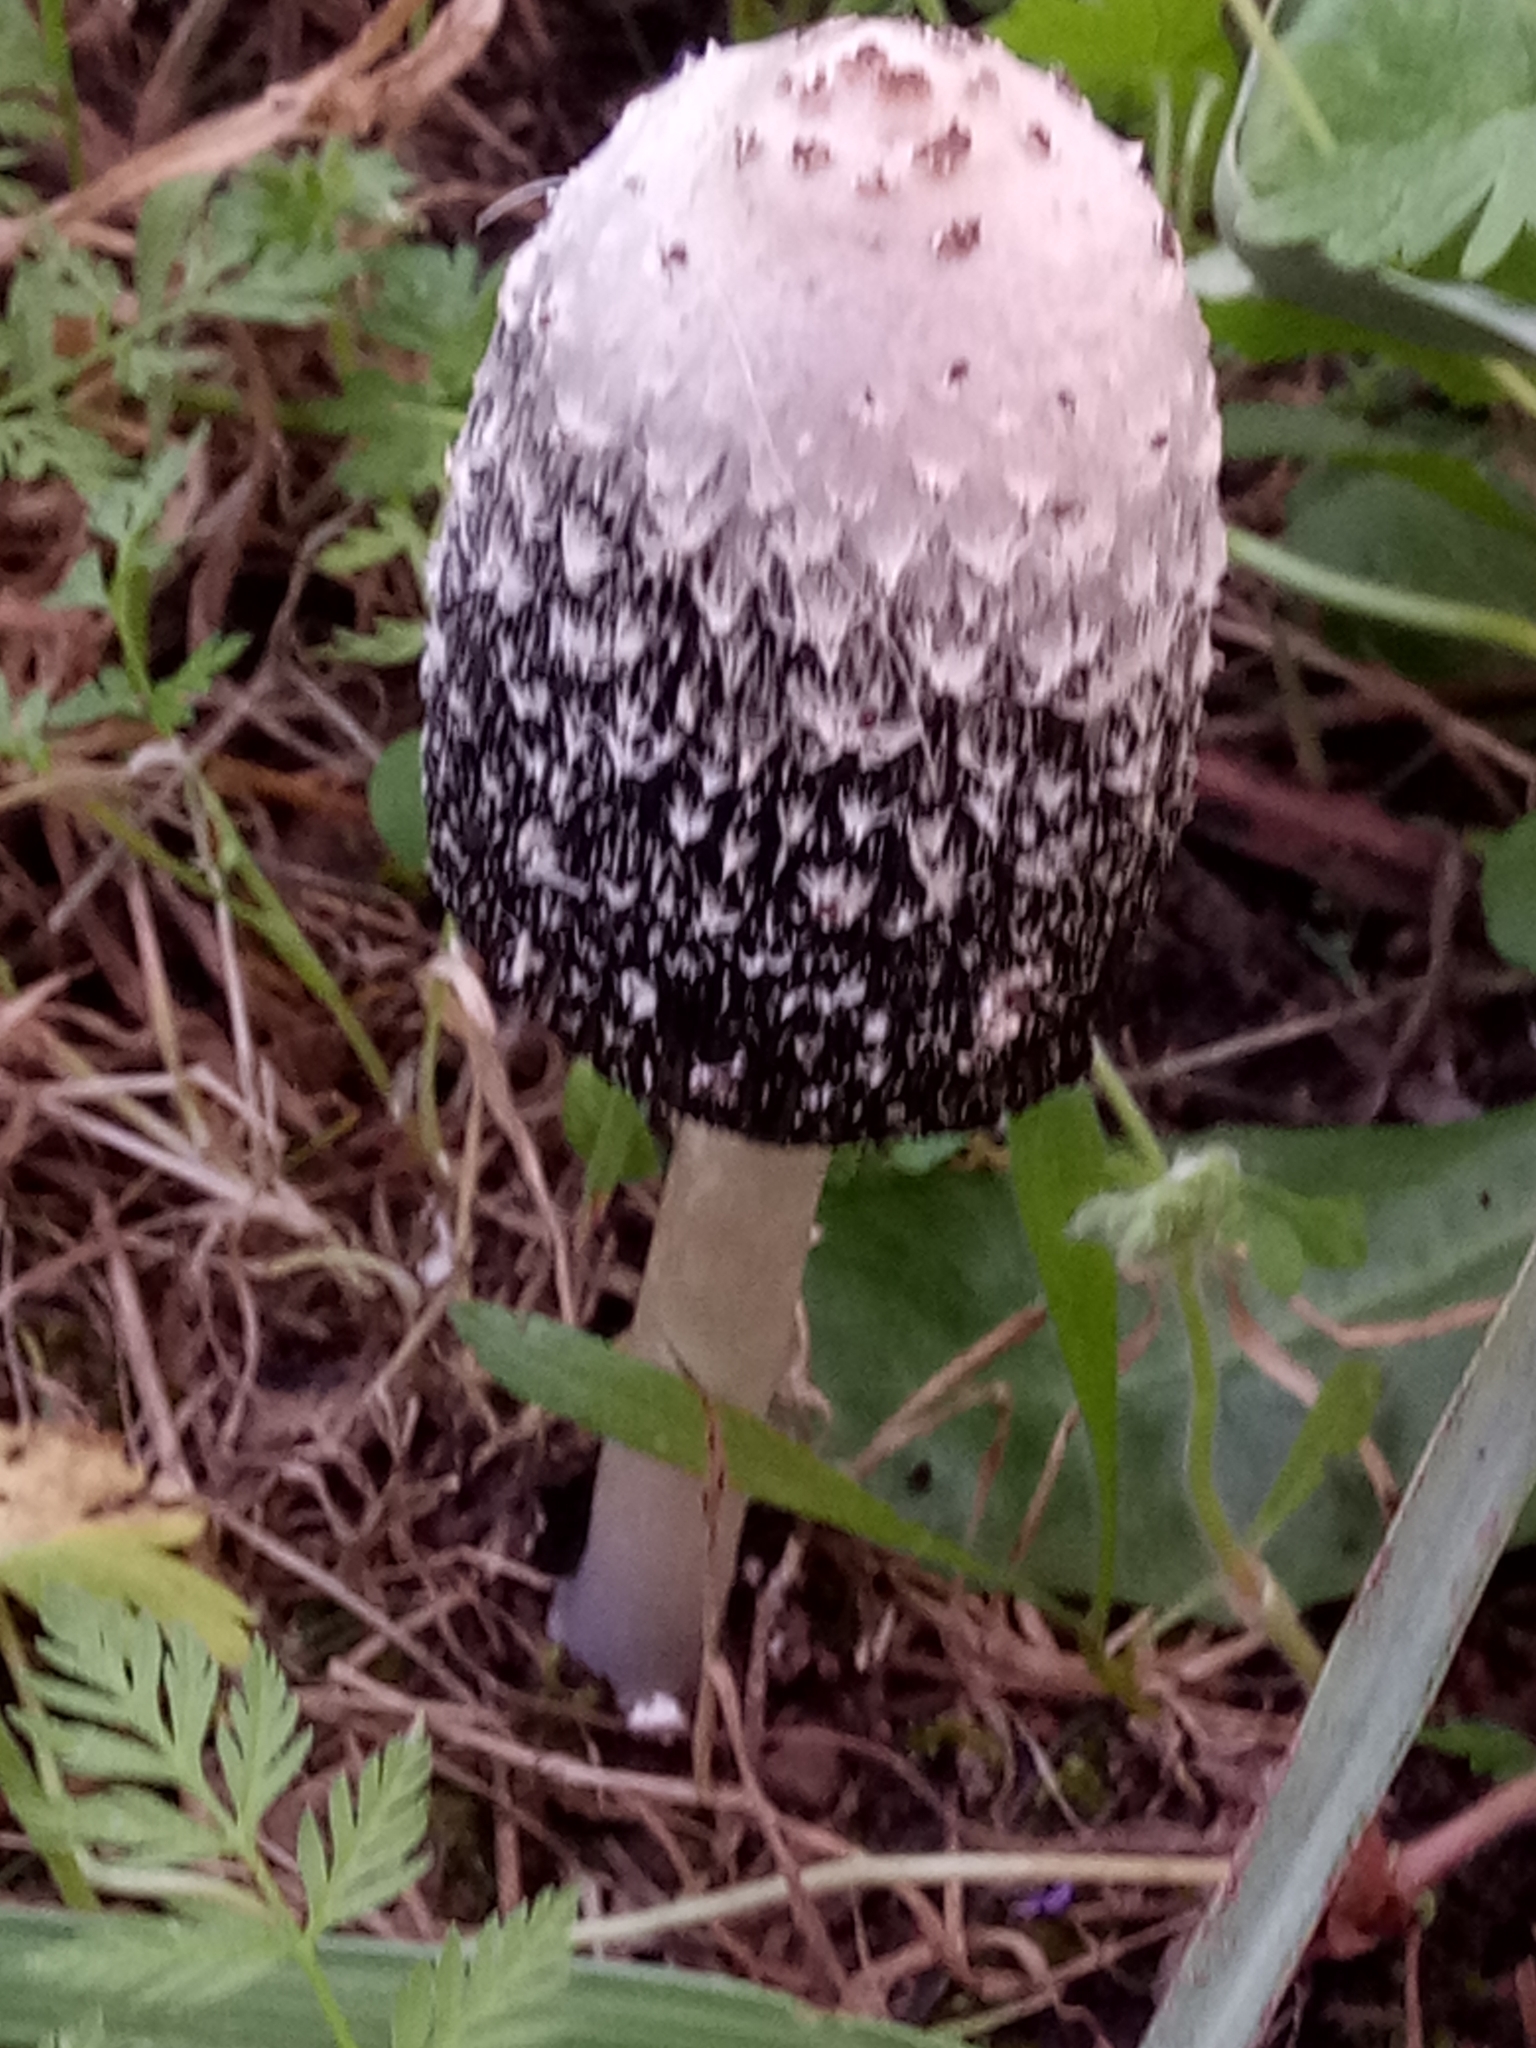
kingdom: Fungi
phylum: Basidiomycota
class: Agaricomycetes
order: Agaricales
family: Agaricaceae
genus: Coprinus
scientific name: Coprinus comatus
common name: Lawyer's wig
